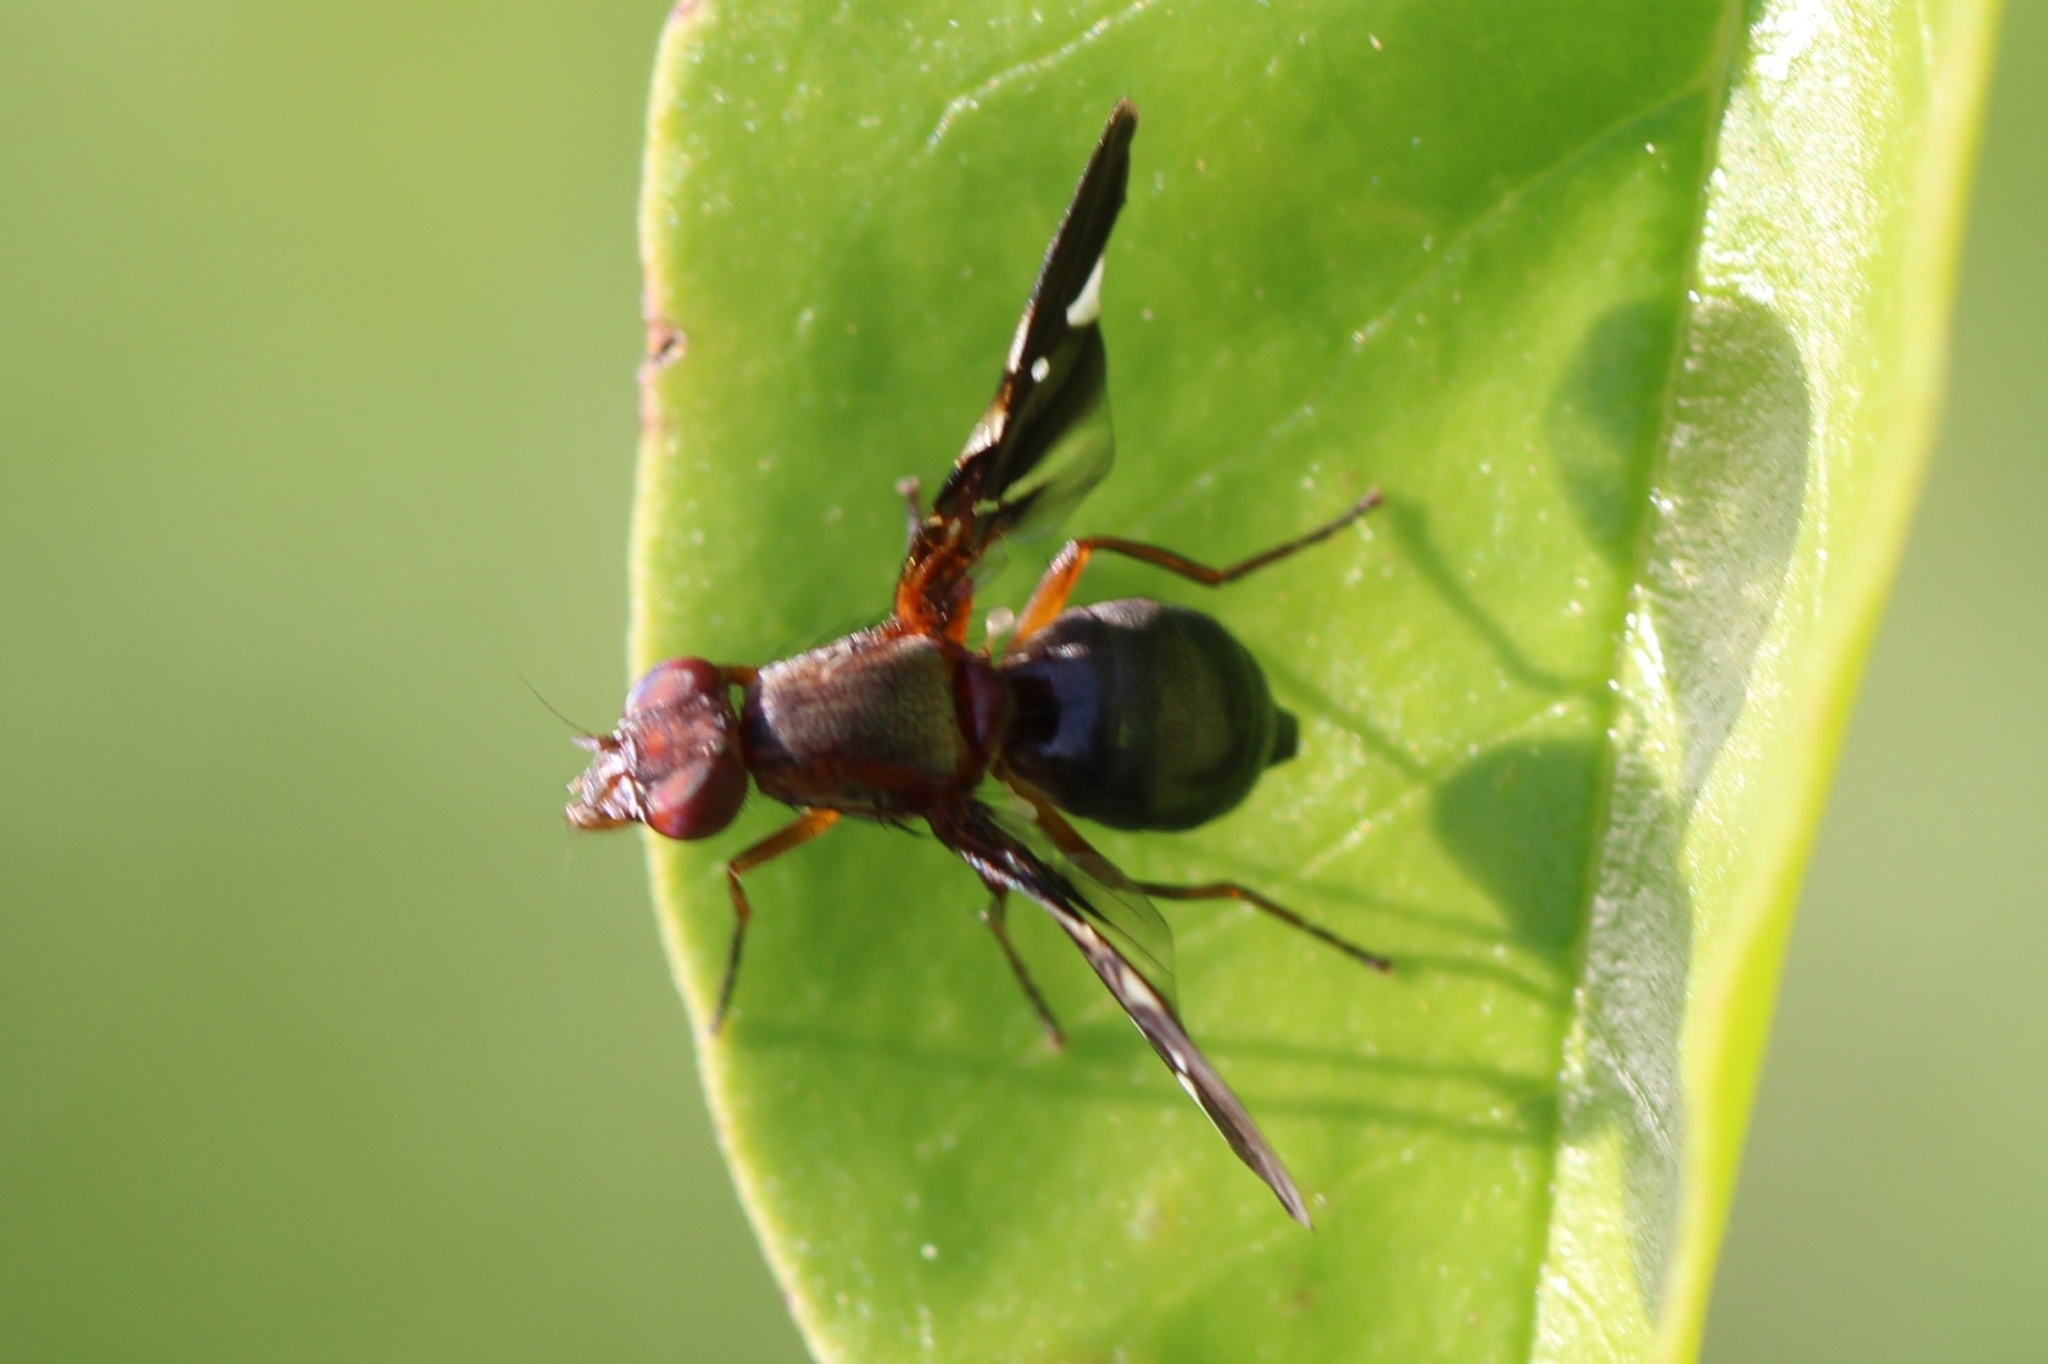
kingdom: Animalia
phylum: Arthropoda
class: Insecta
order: Diptera
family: Ulidiidae
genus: Delphinia
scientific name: Delphinia picta
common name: Common picture-winged fly
